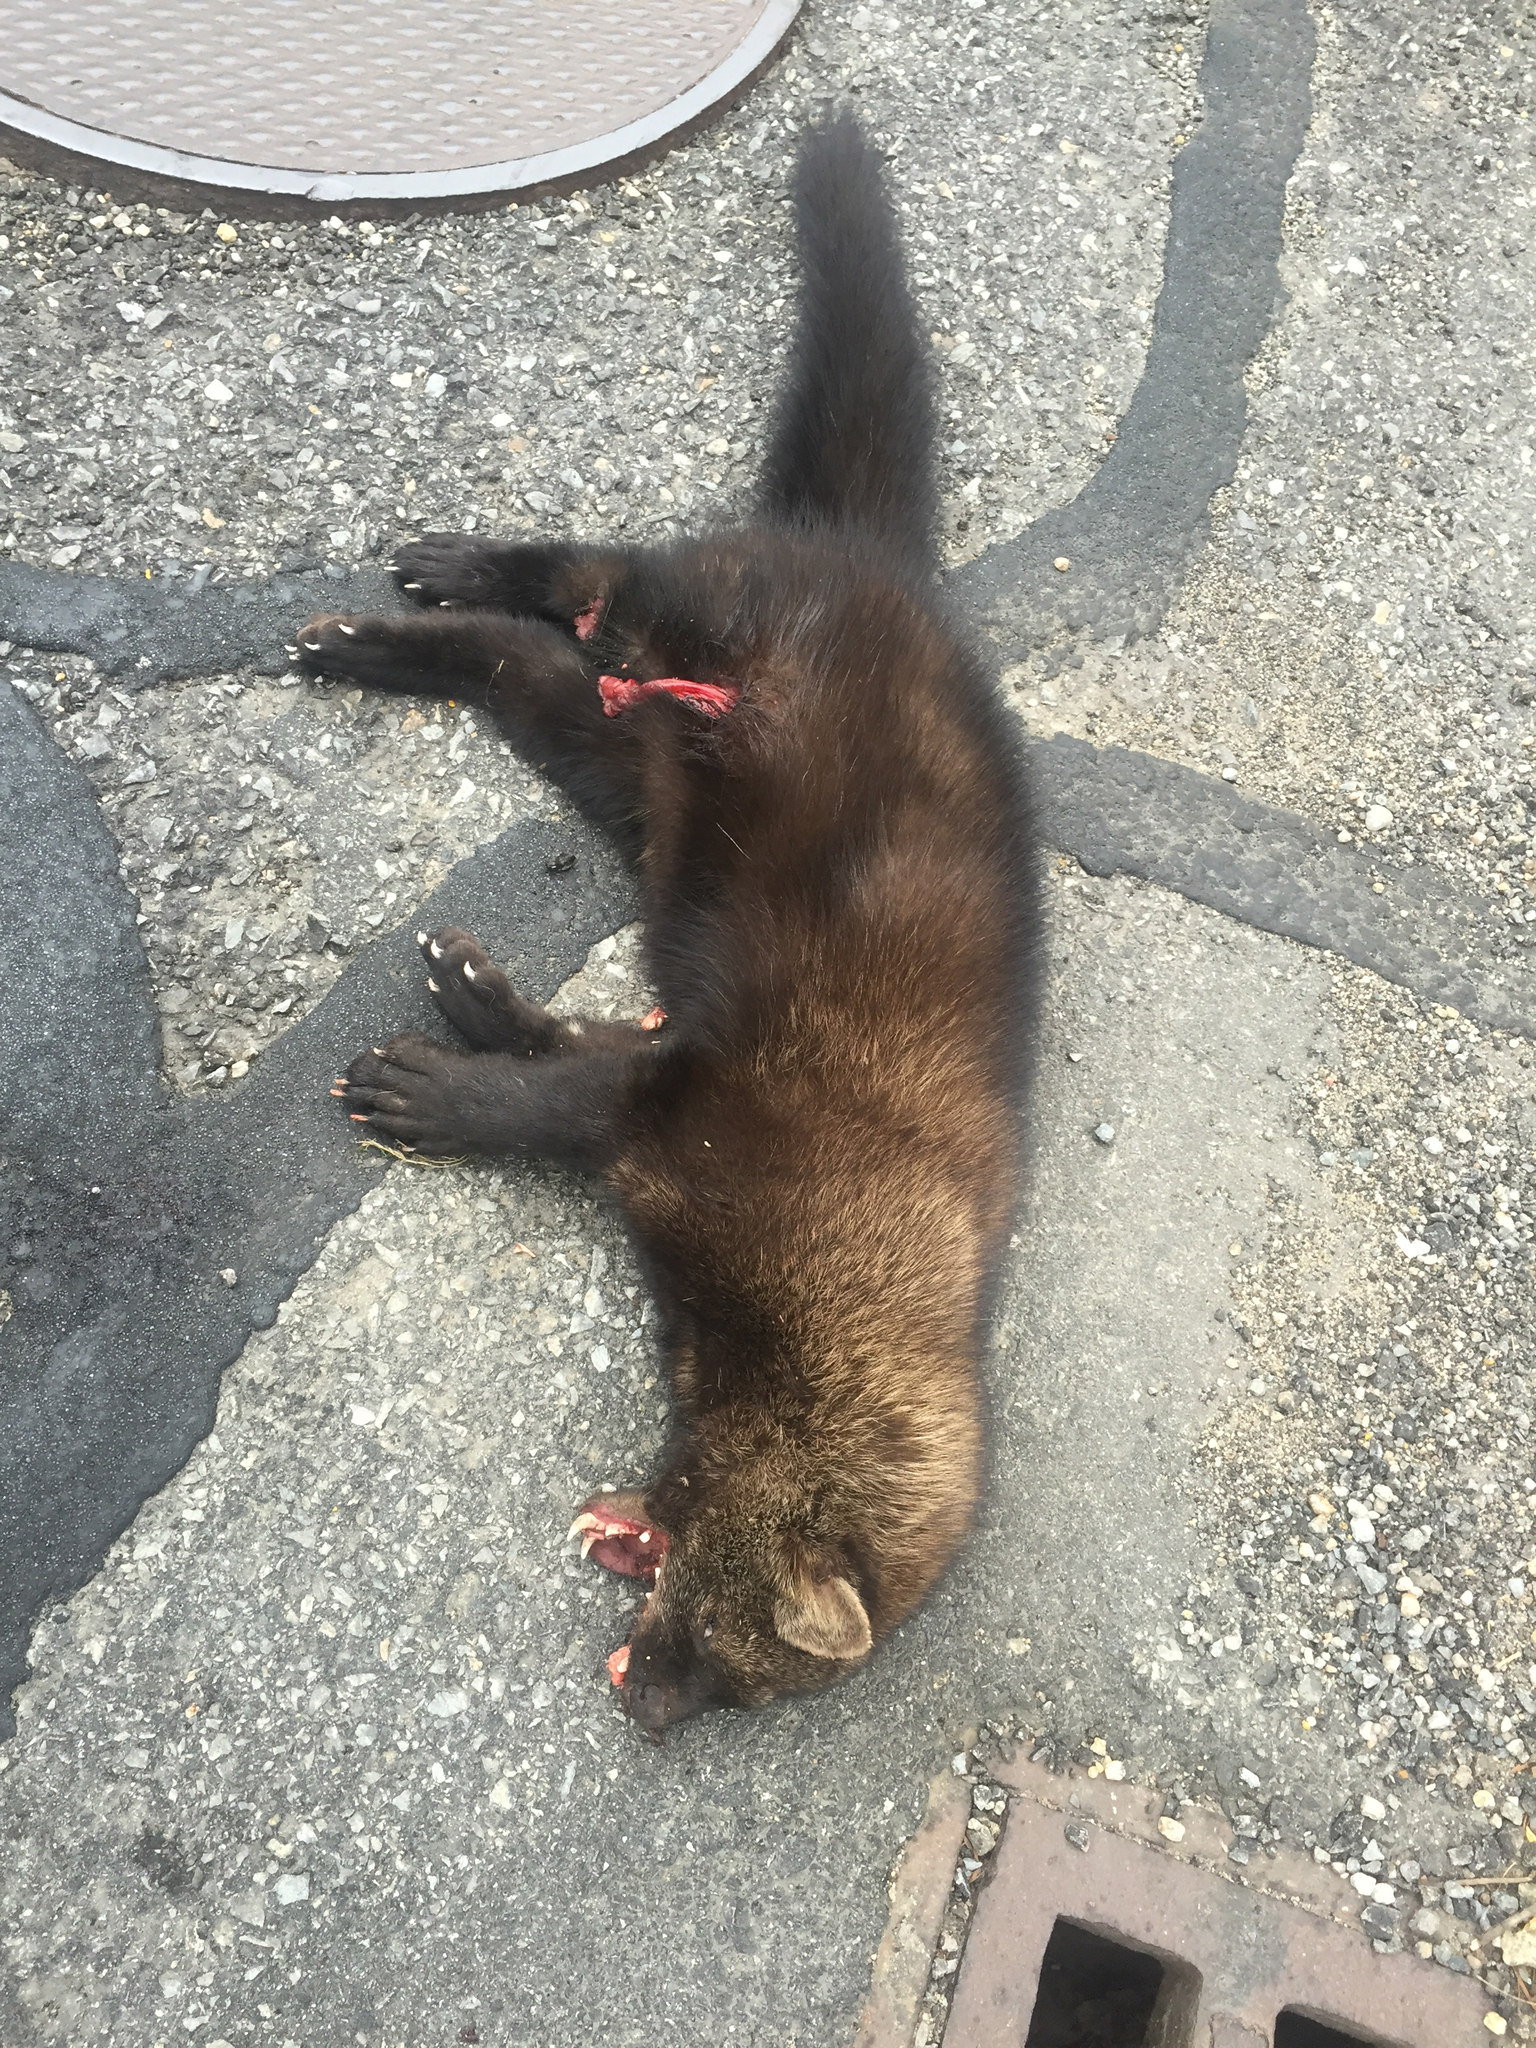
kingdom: Animalia
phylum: Chordata
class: Mammalia
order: Carnivora
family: Mustelidae
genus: Pekania
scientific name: Pekania pennanti
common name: Fisher
